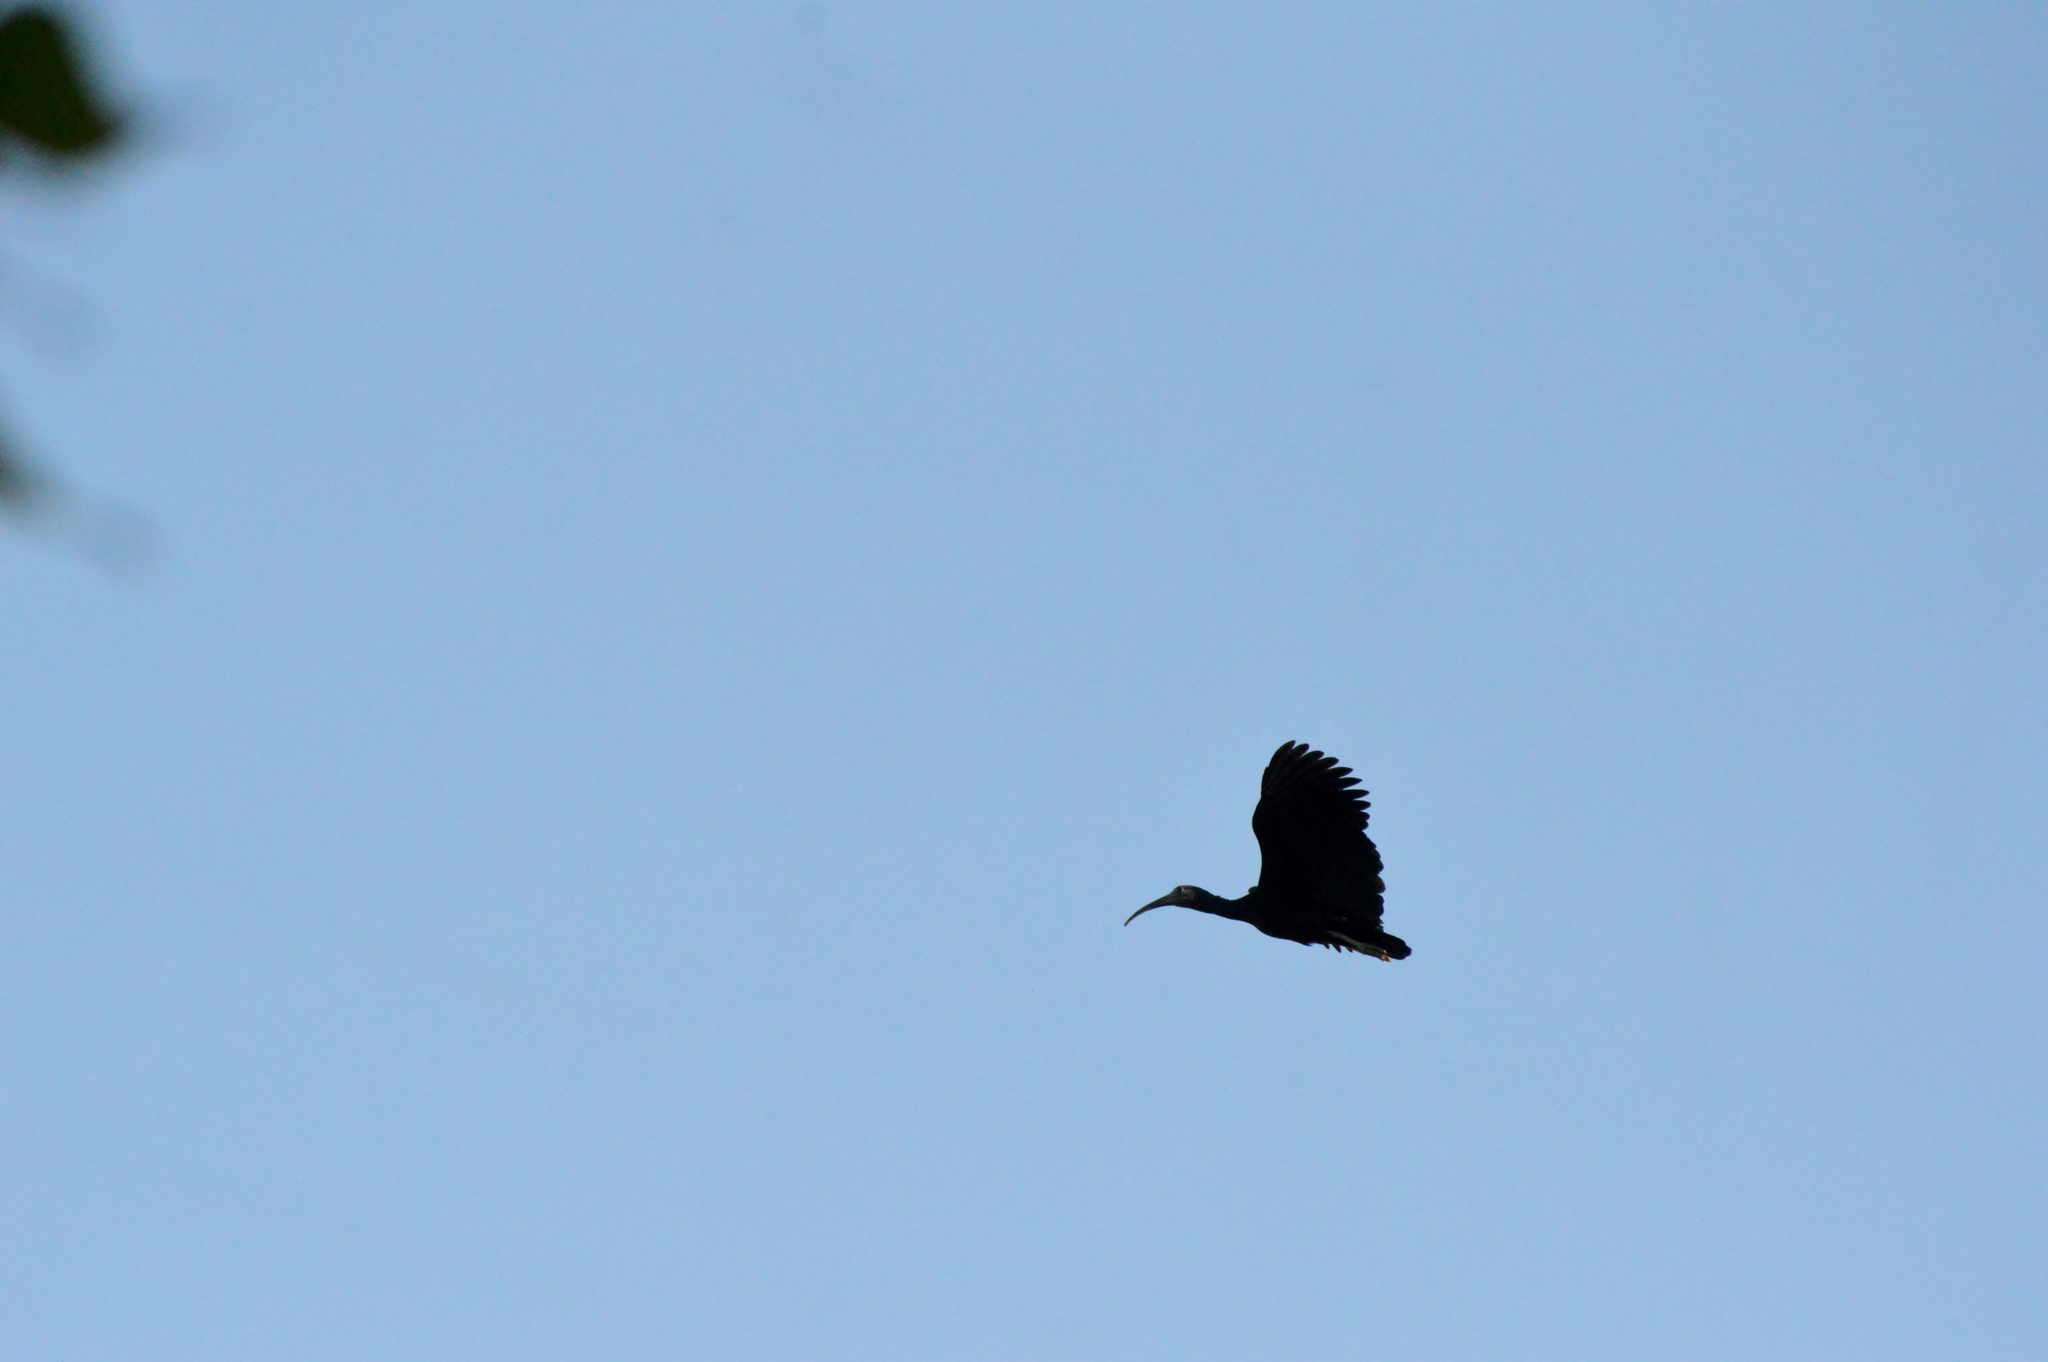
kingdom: Animalia
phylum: Chordata
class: Aves
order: Pelecaniformes
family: Threskiornithidae
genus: Theristicus
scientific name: Theristicus caudatus
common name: Buff-necked ibis
